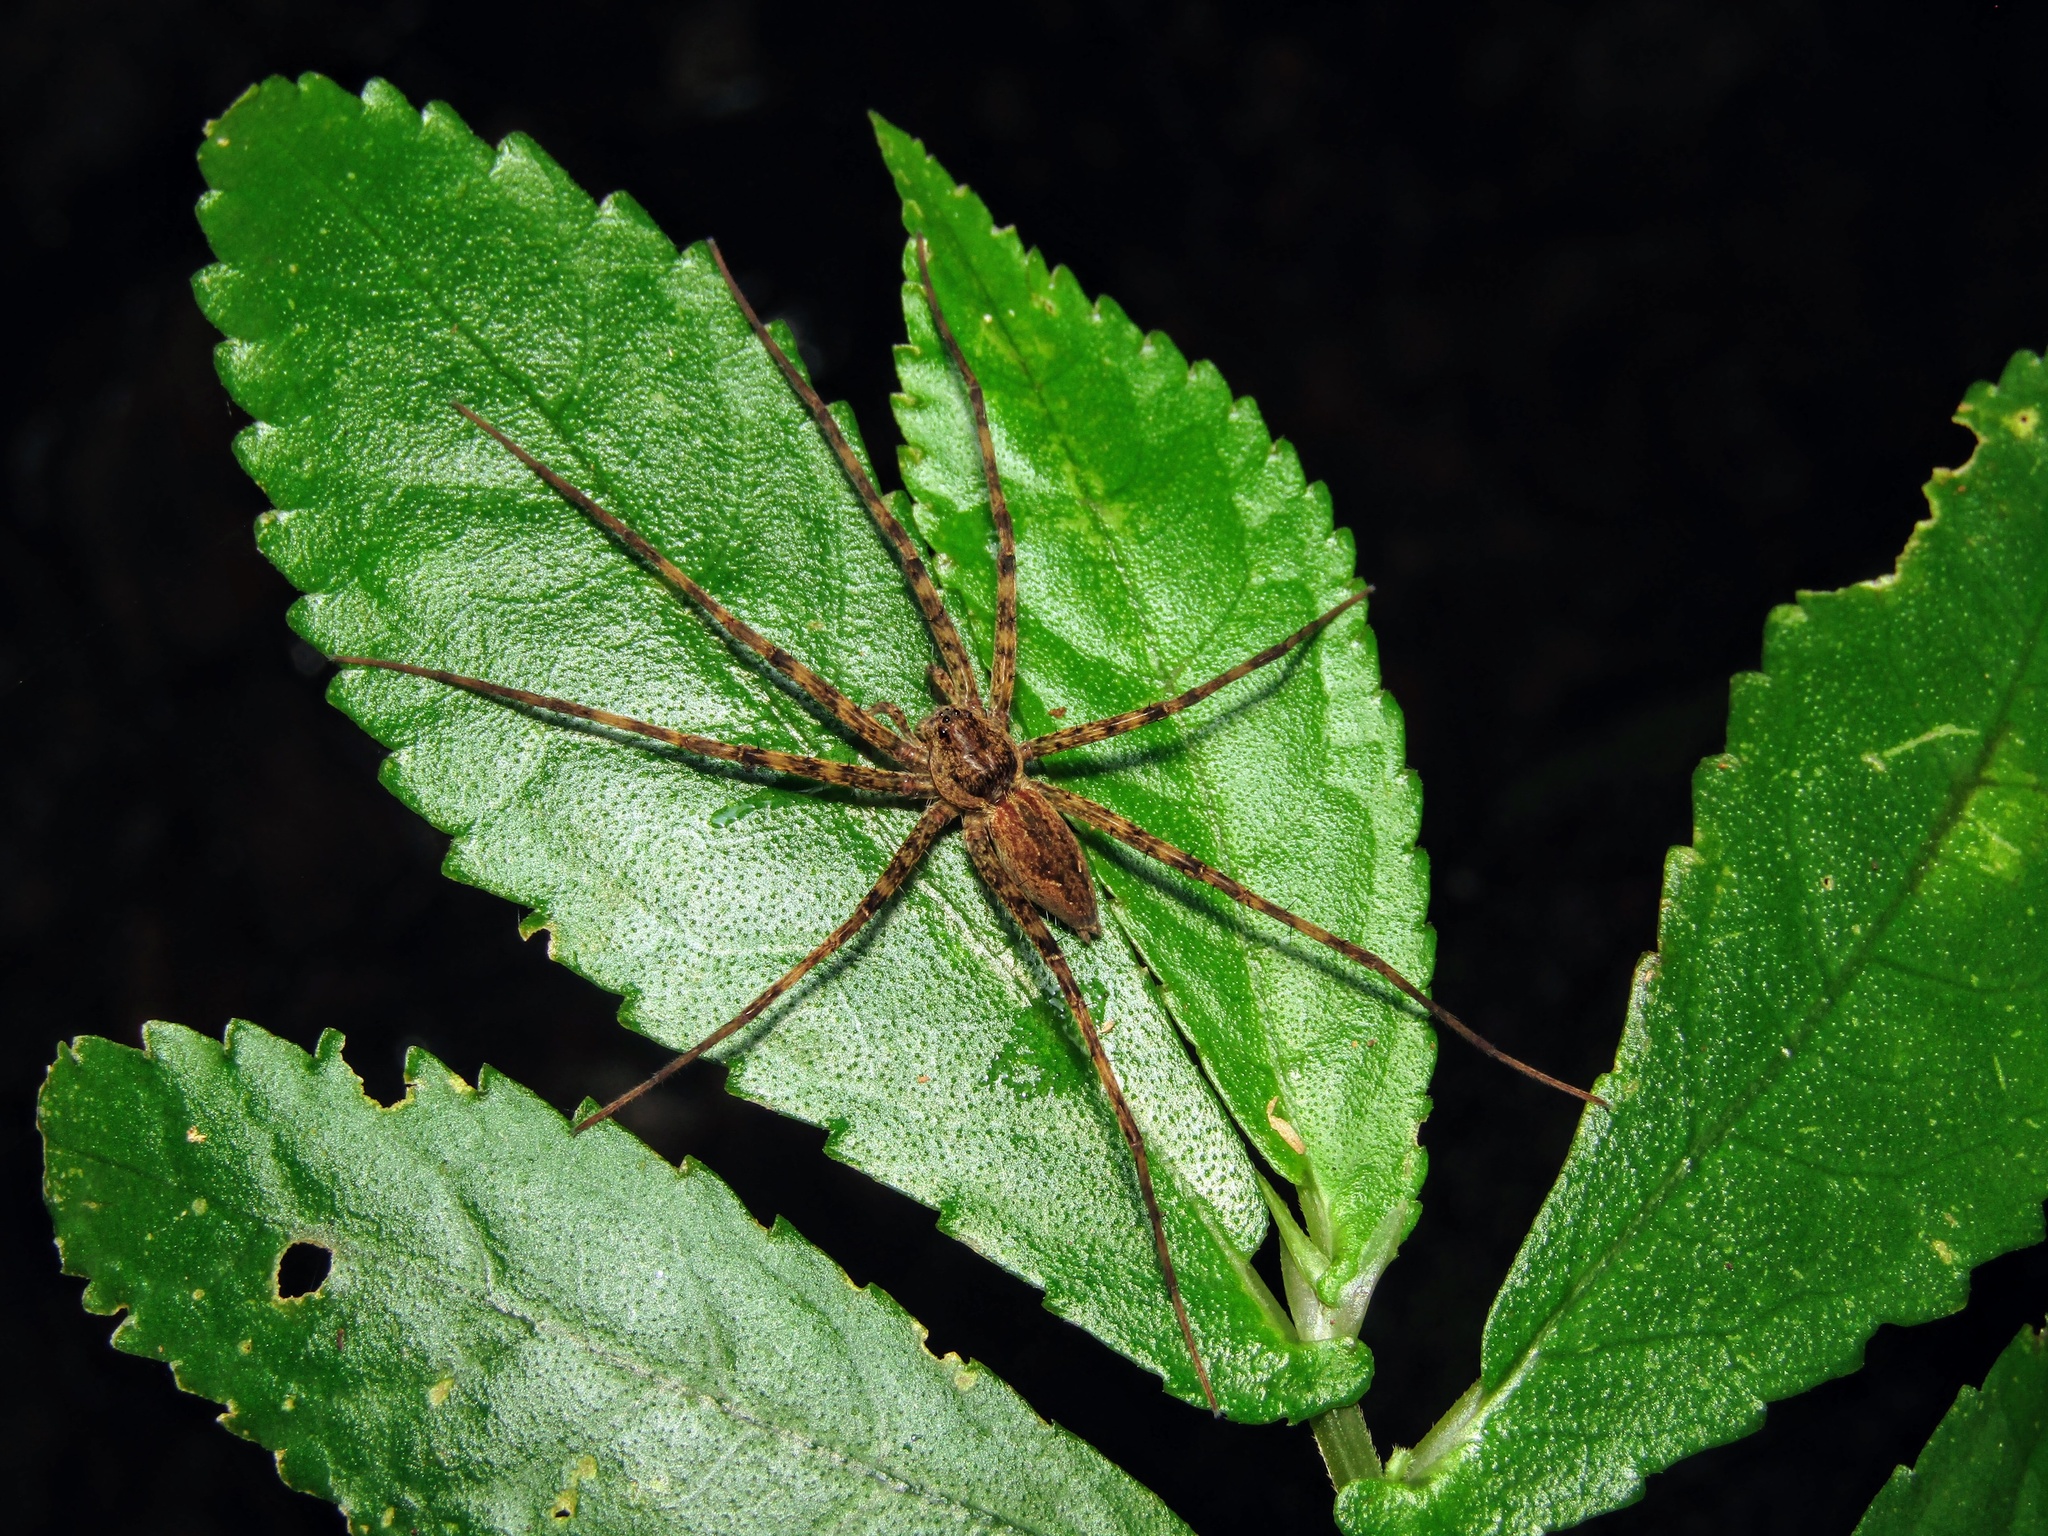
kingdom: Animalia
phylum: Arthropoda
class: Arachnida
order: Araneae
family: Pisauridae
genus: Megadolomedes
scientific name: Megadolomedes trux
